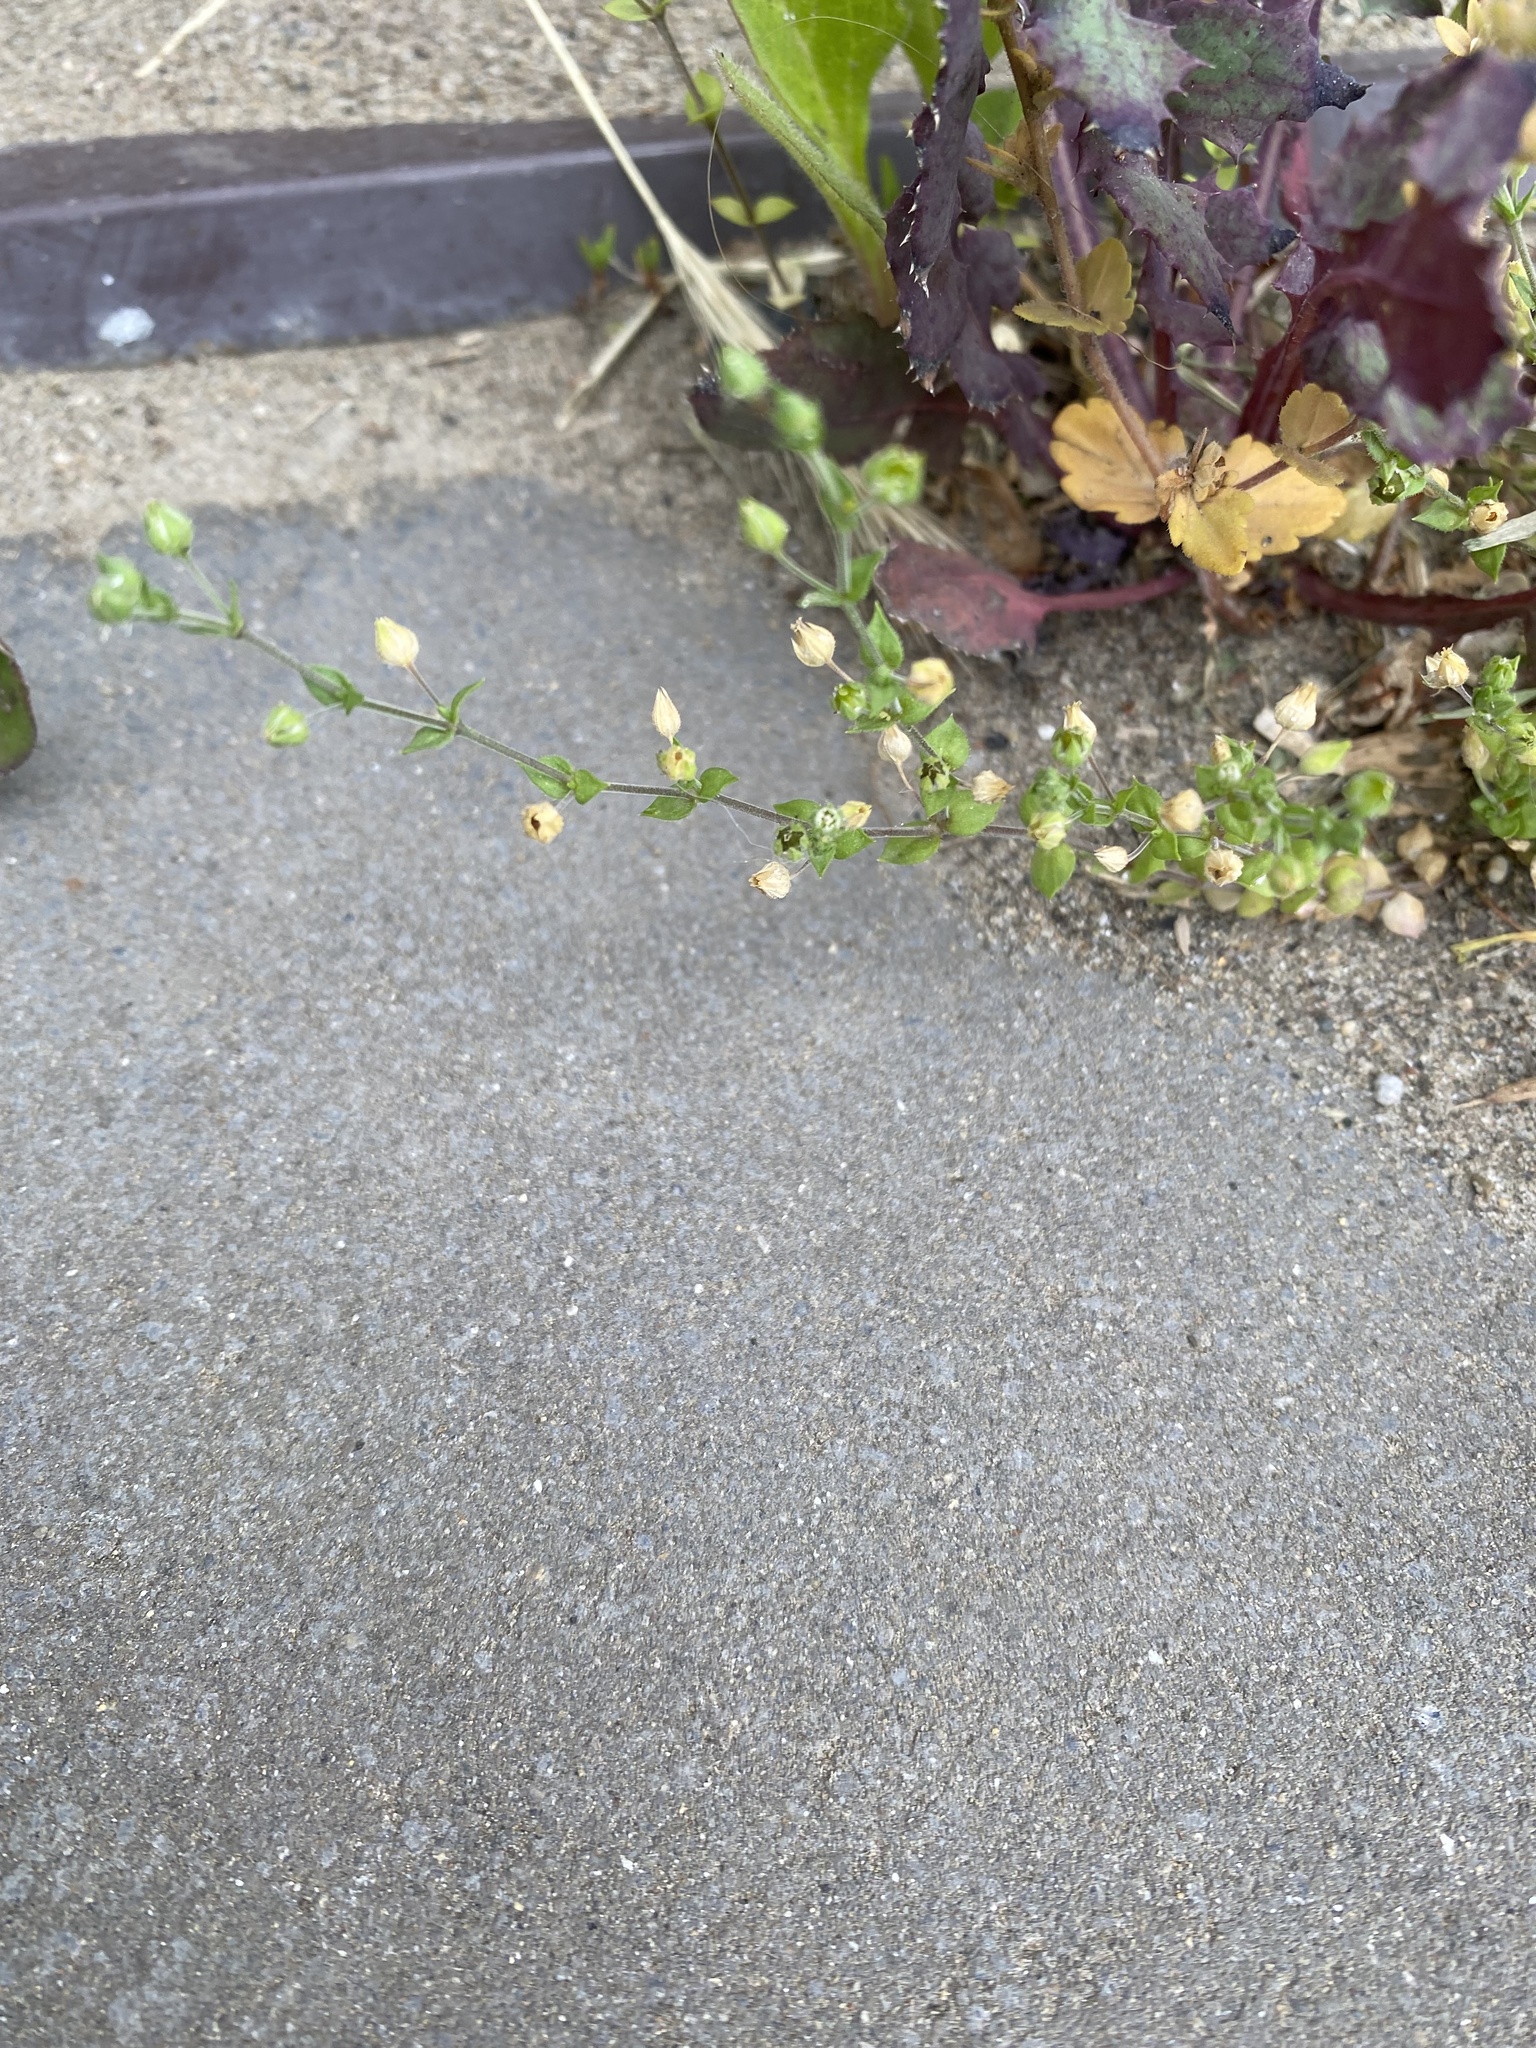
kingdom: Plantae
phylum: Tracheophyta
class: Magnoliopsida
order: Caryophyllales
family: Caryophyllaceae
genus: Arenaria
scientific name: Arenaria serpyllifolia
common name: Thyme-leaved sandwort
